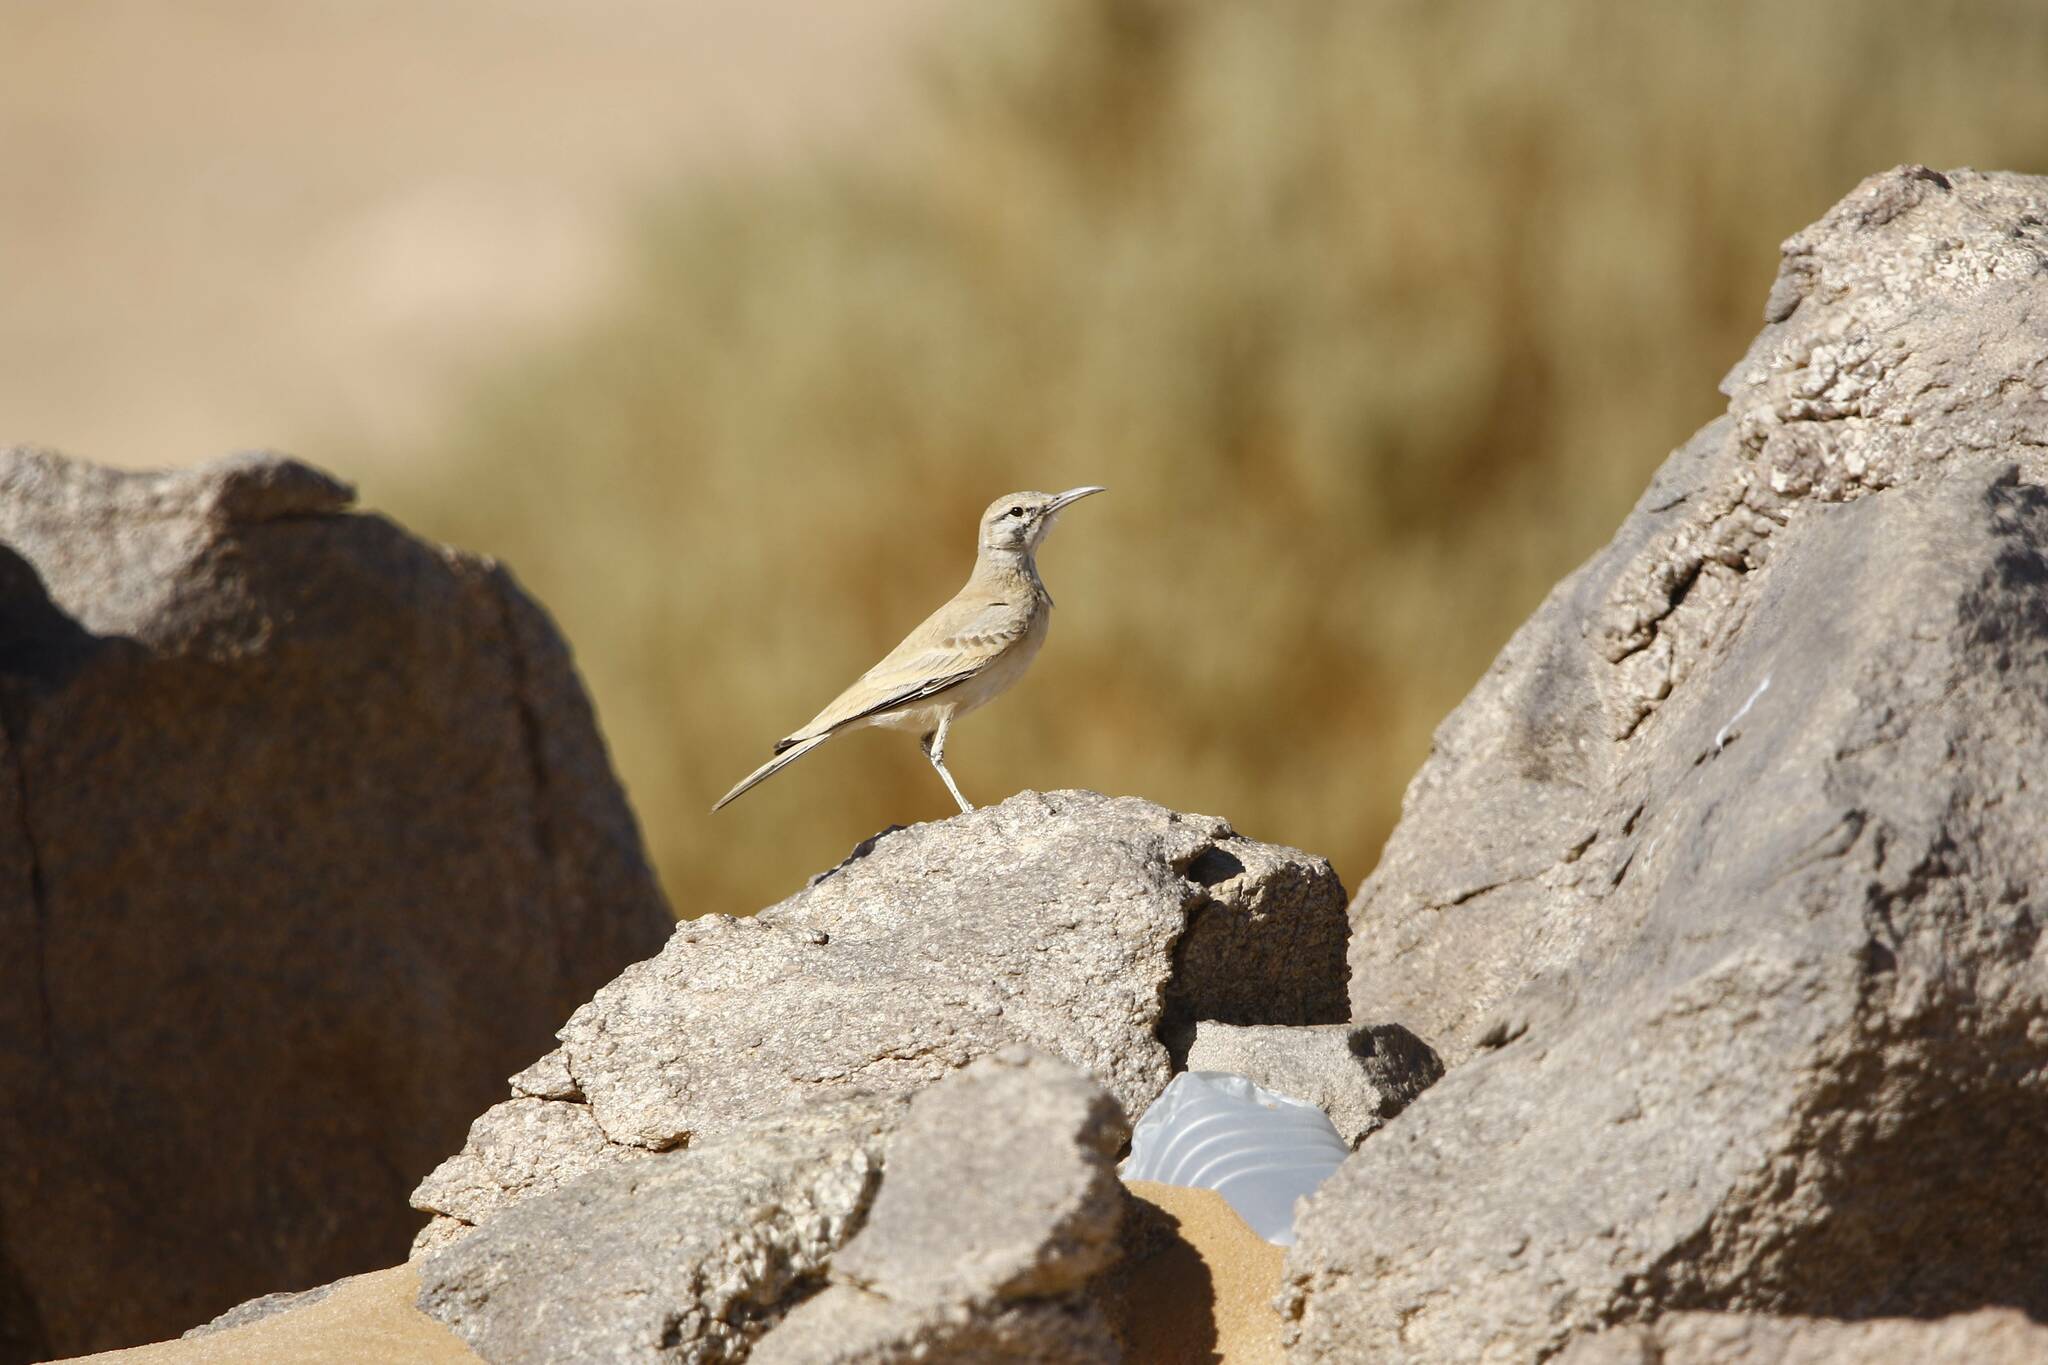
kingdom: Animalia
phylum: Chordata
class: Aves
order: Passeriformes
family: Alaudidae
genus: Alaemon
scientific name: Alaemon alaudipes
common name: Greater hoopoe-lark
